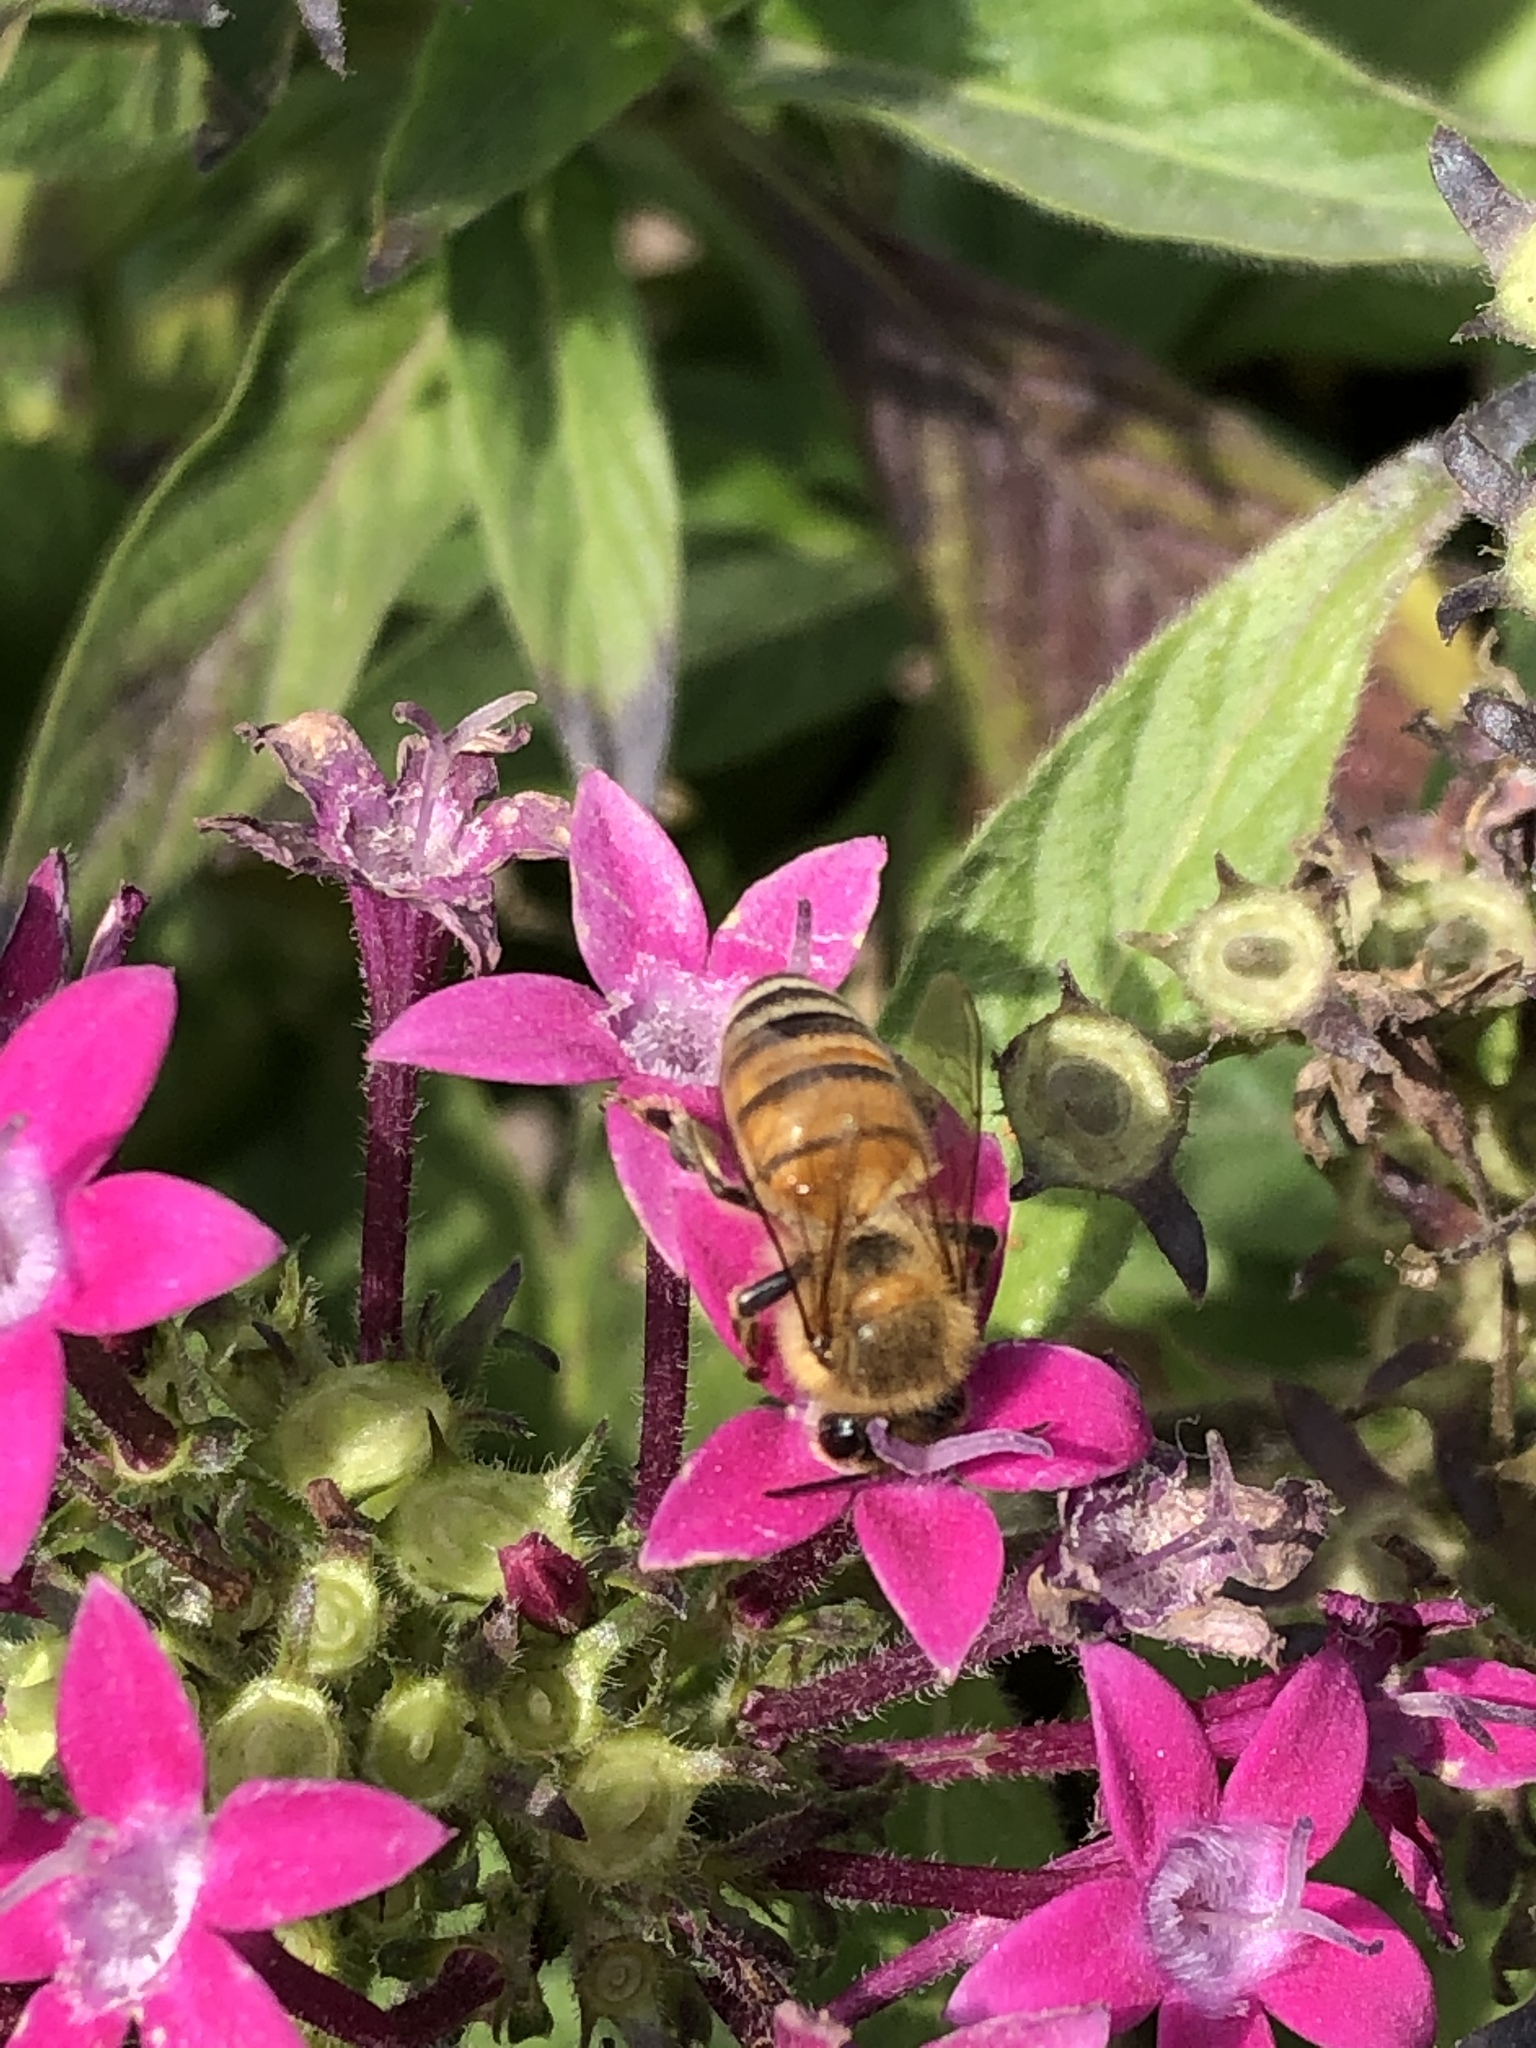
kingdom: Animalia
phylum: Arthropoda
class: Insecta
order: Hymenoptera
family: Apidae
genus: Apis
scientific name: Apis mellifera
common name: Honey bee
